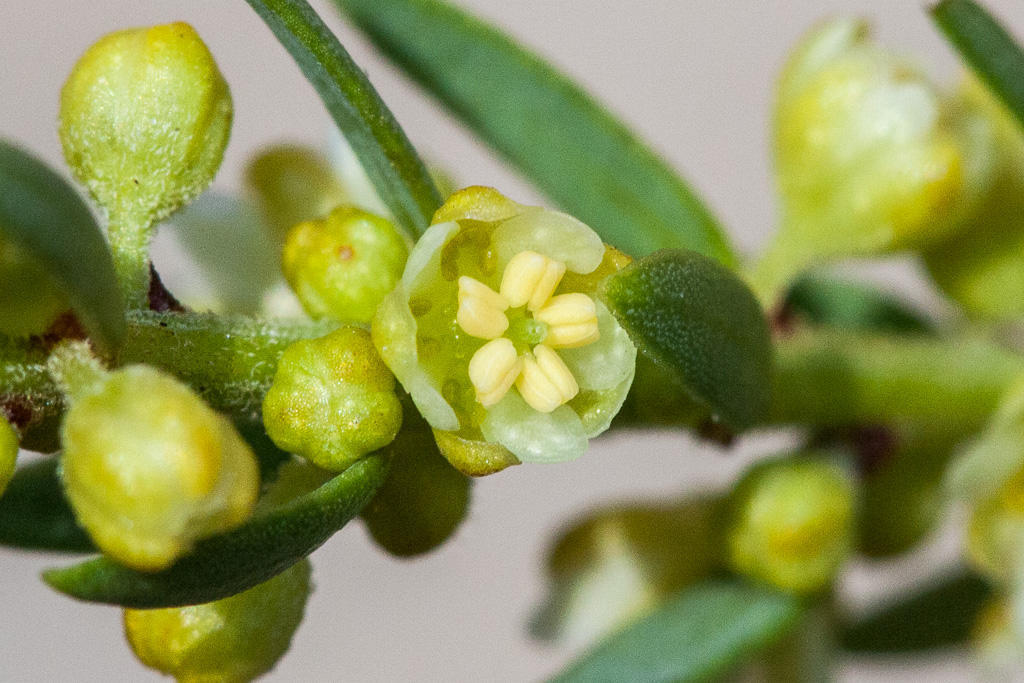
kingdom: Plantae
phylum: Tracheophyta
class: Magnoliopsida
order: Malpighiales
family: Peraceae
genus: Clutia
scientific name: Clutia ericoides
